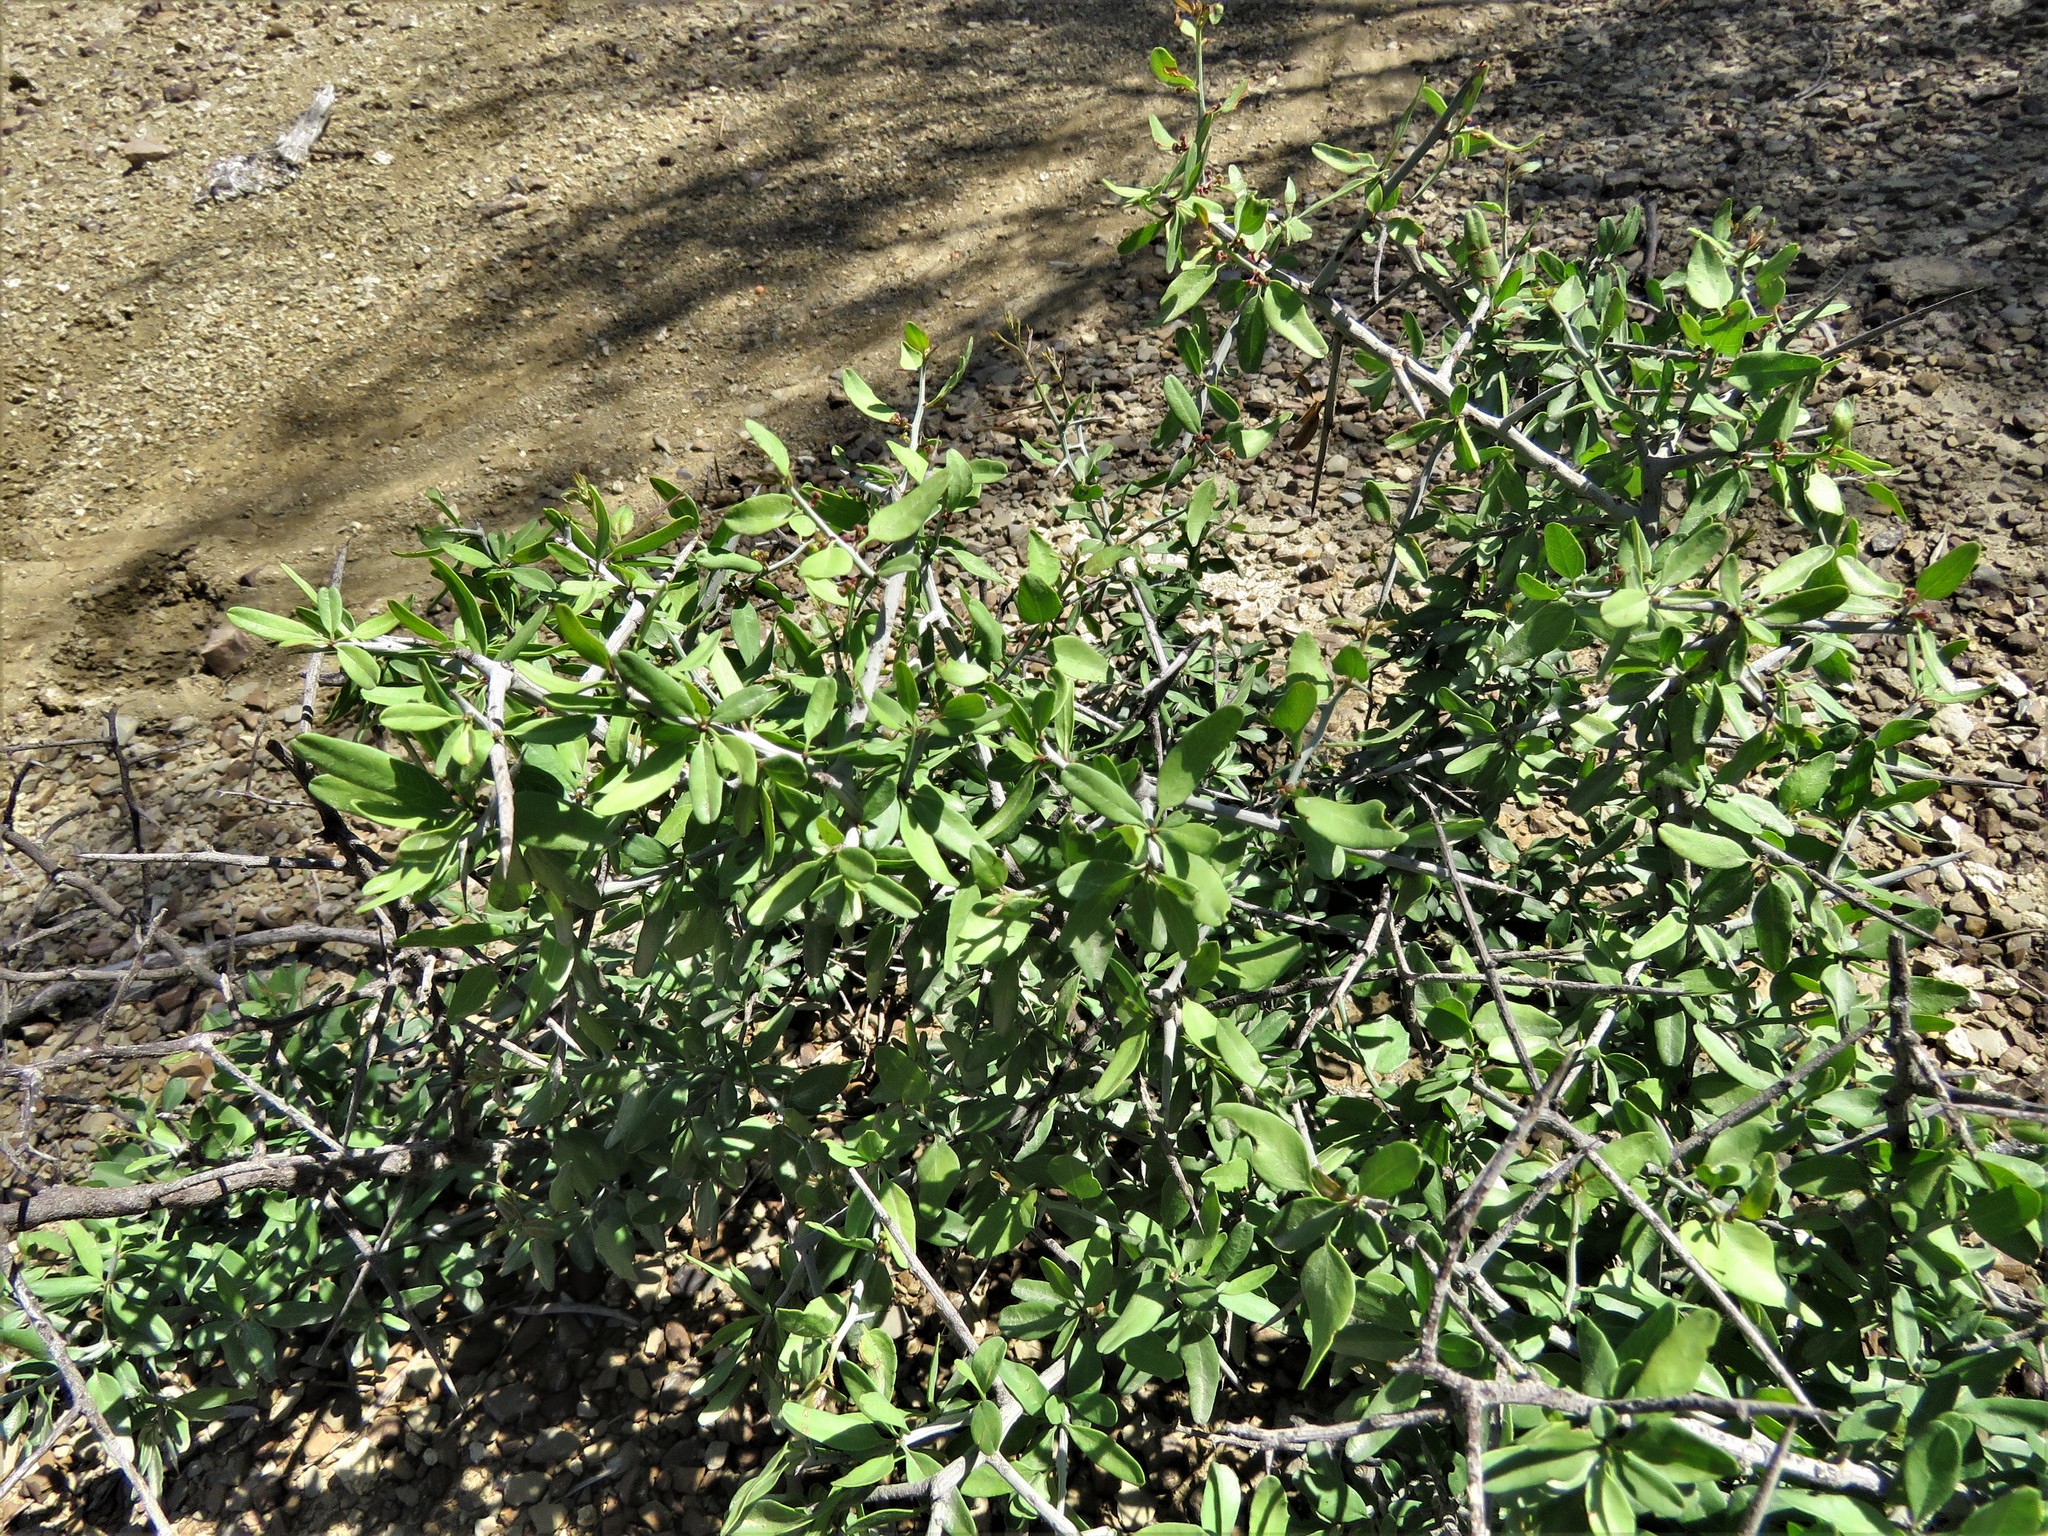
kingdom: Plantae
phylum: Tracheophyta
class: Magnoliopsida
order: Rosales
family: Rhamnaceae
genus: Sarcomphalus
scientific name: Sarcomphalus obtusifolius
